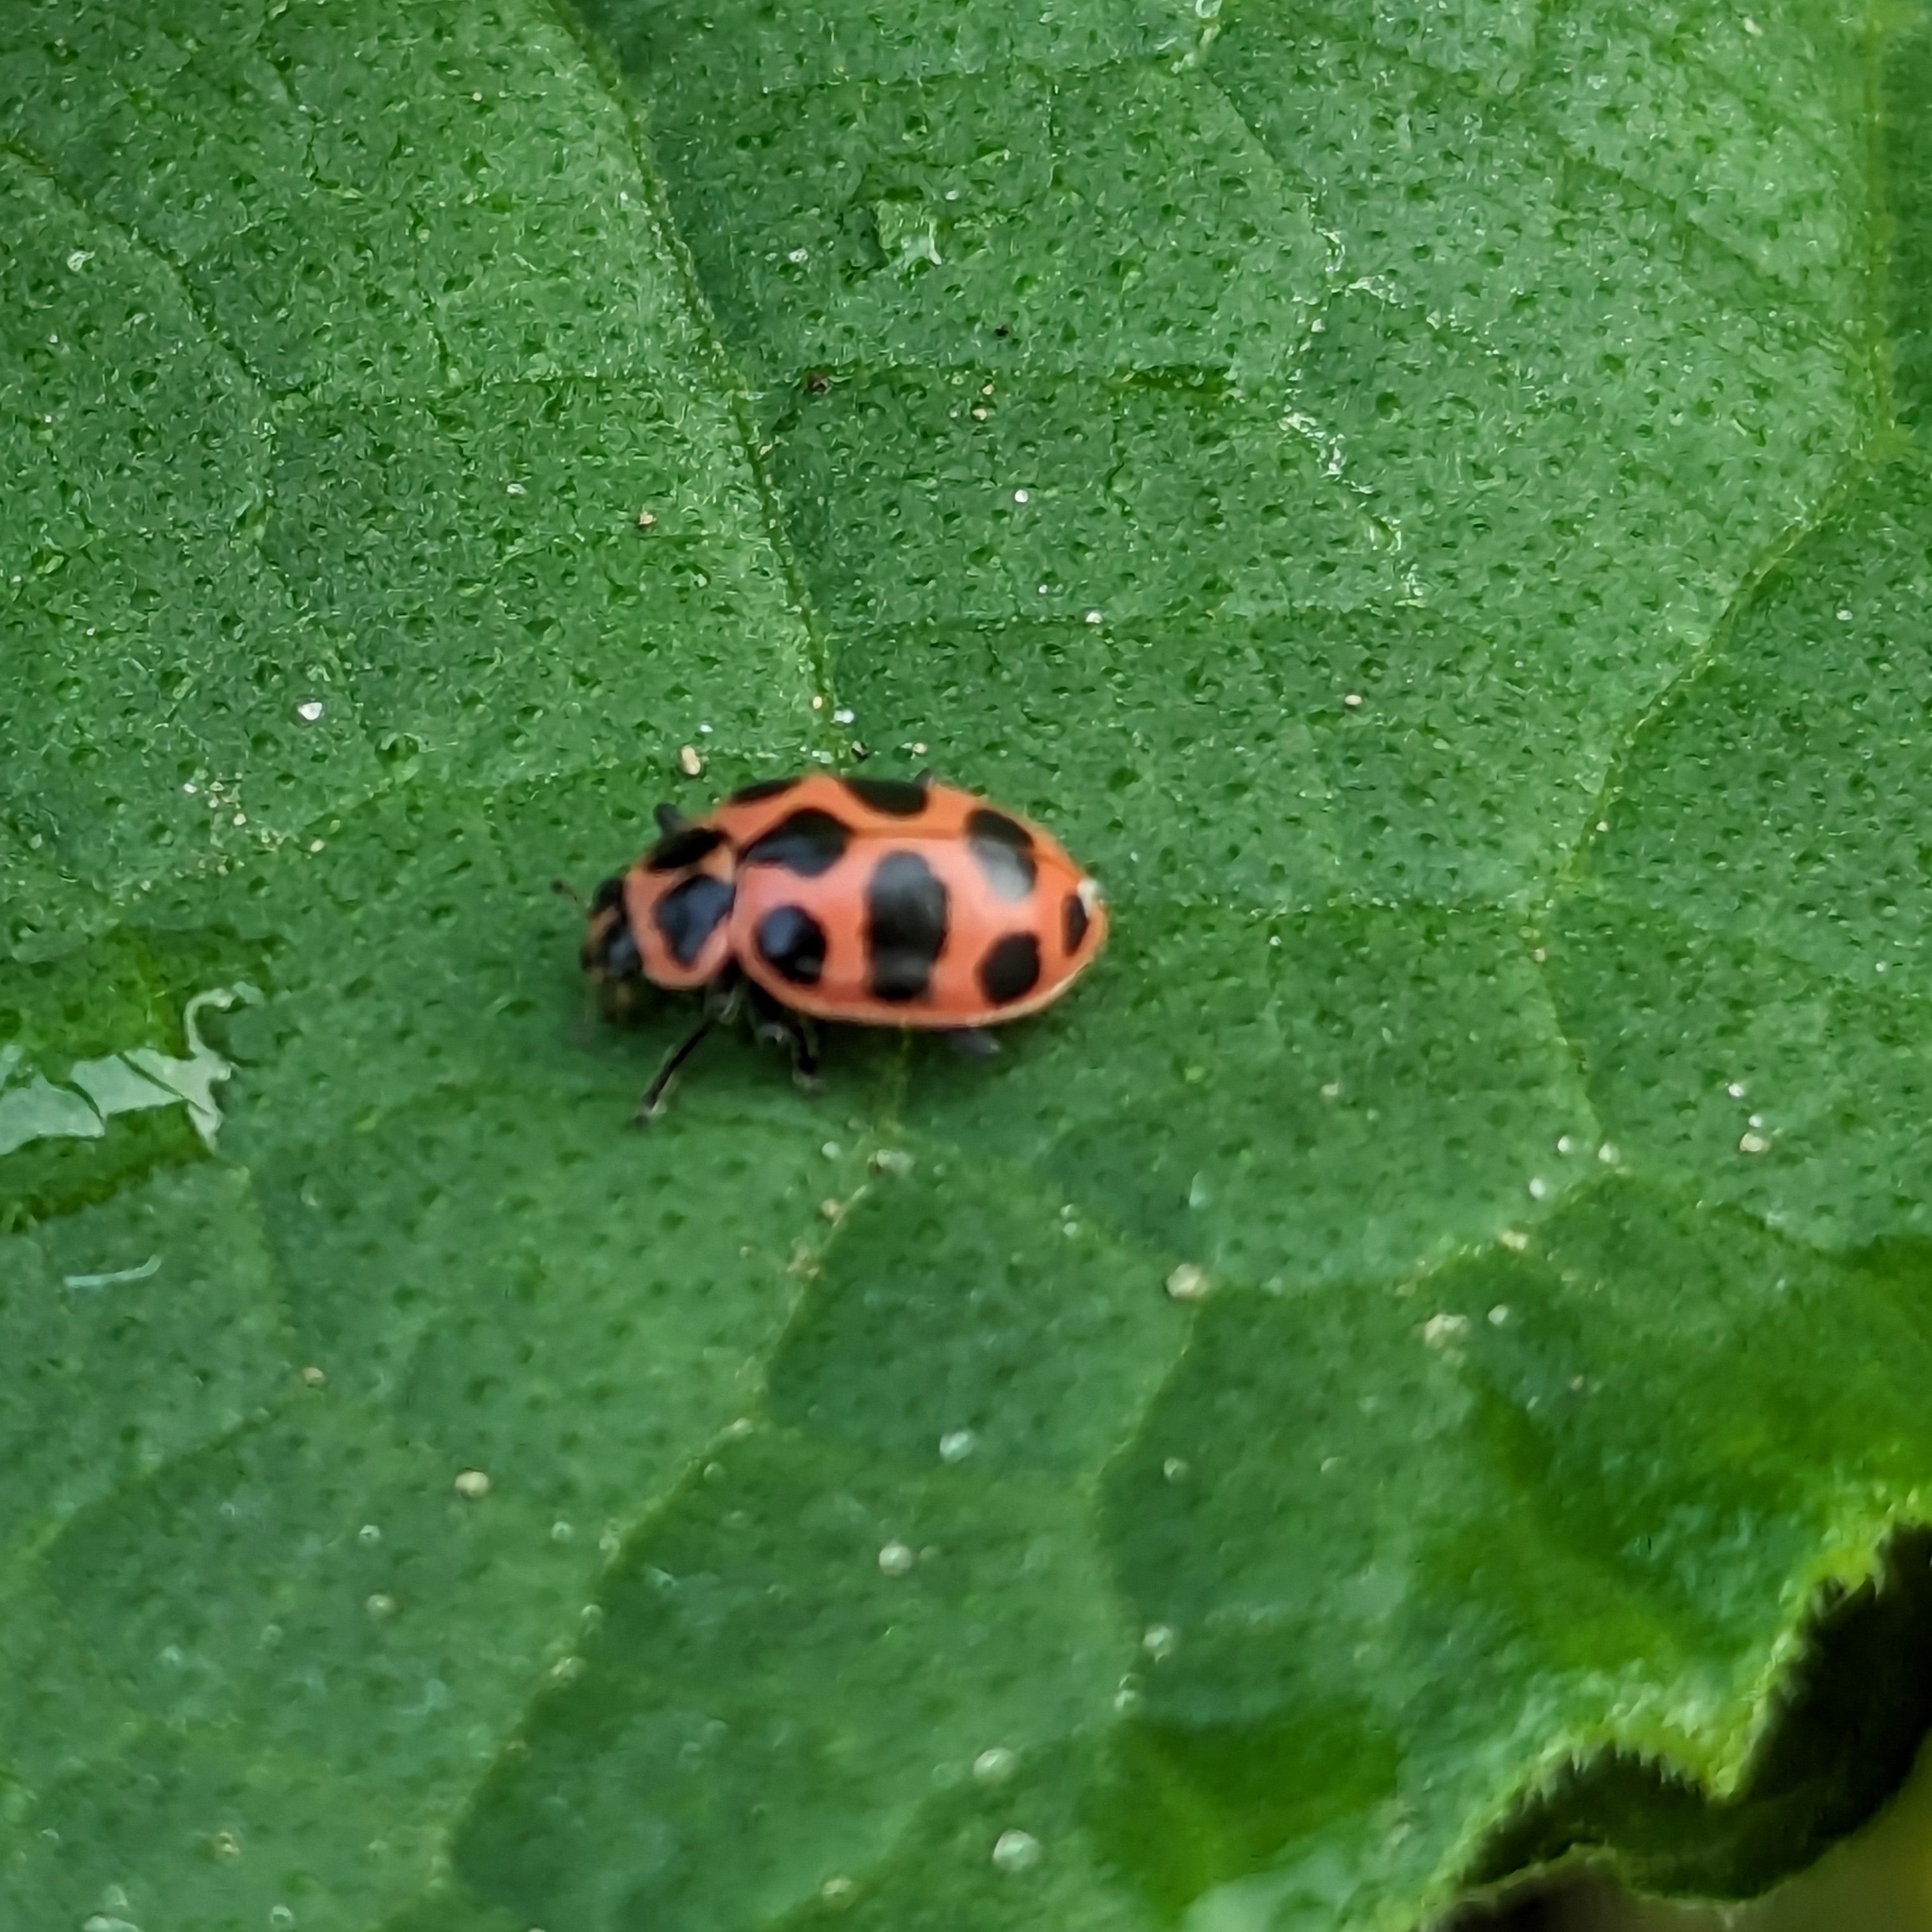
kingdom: Animalia
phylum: Arthropoda
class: Insecta
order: Coleoptera
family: Coccinellidae
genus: Coleomegilla
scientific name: Coleomegilla maculata
